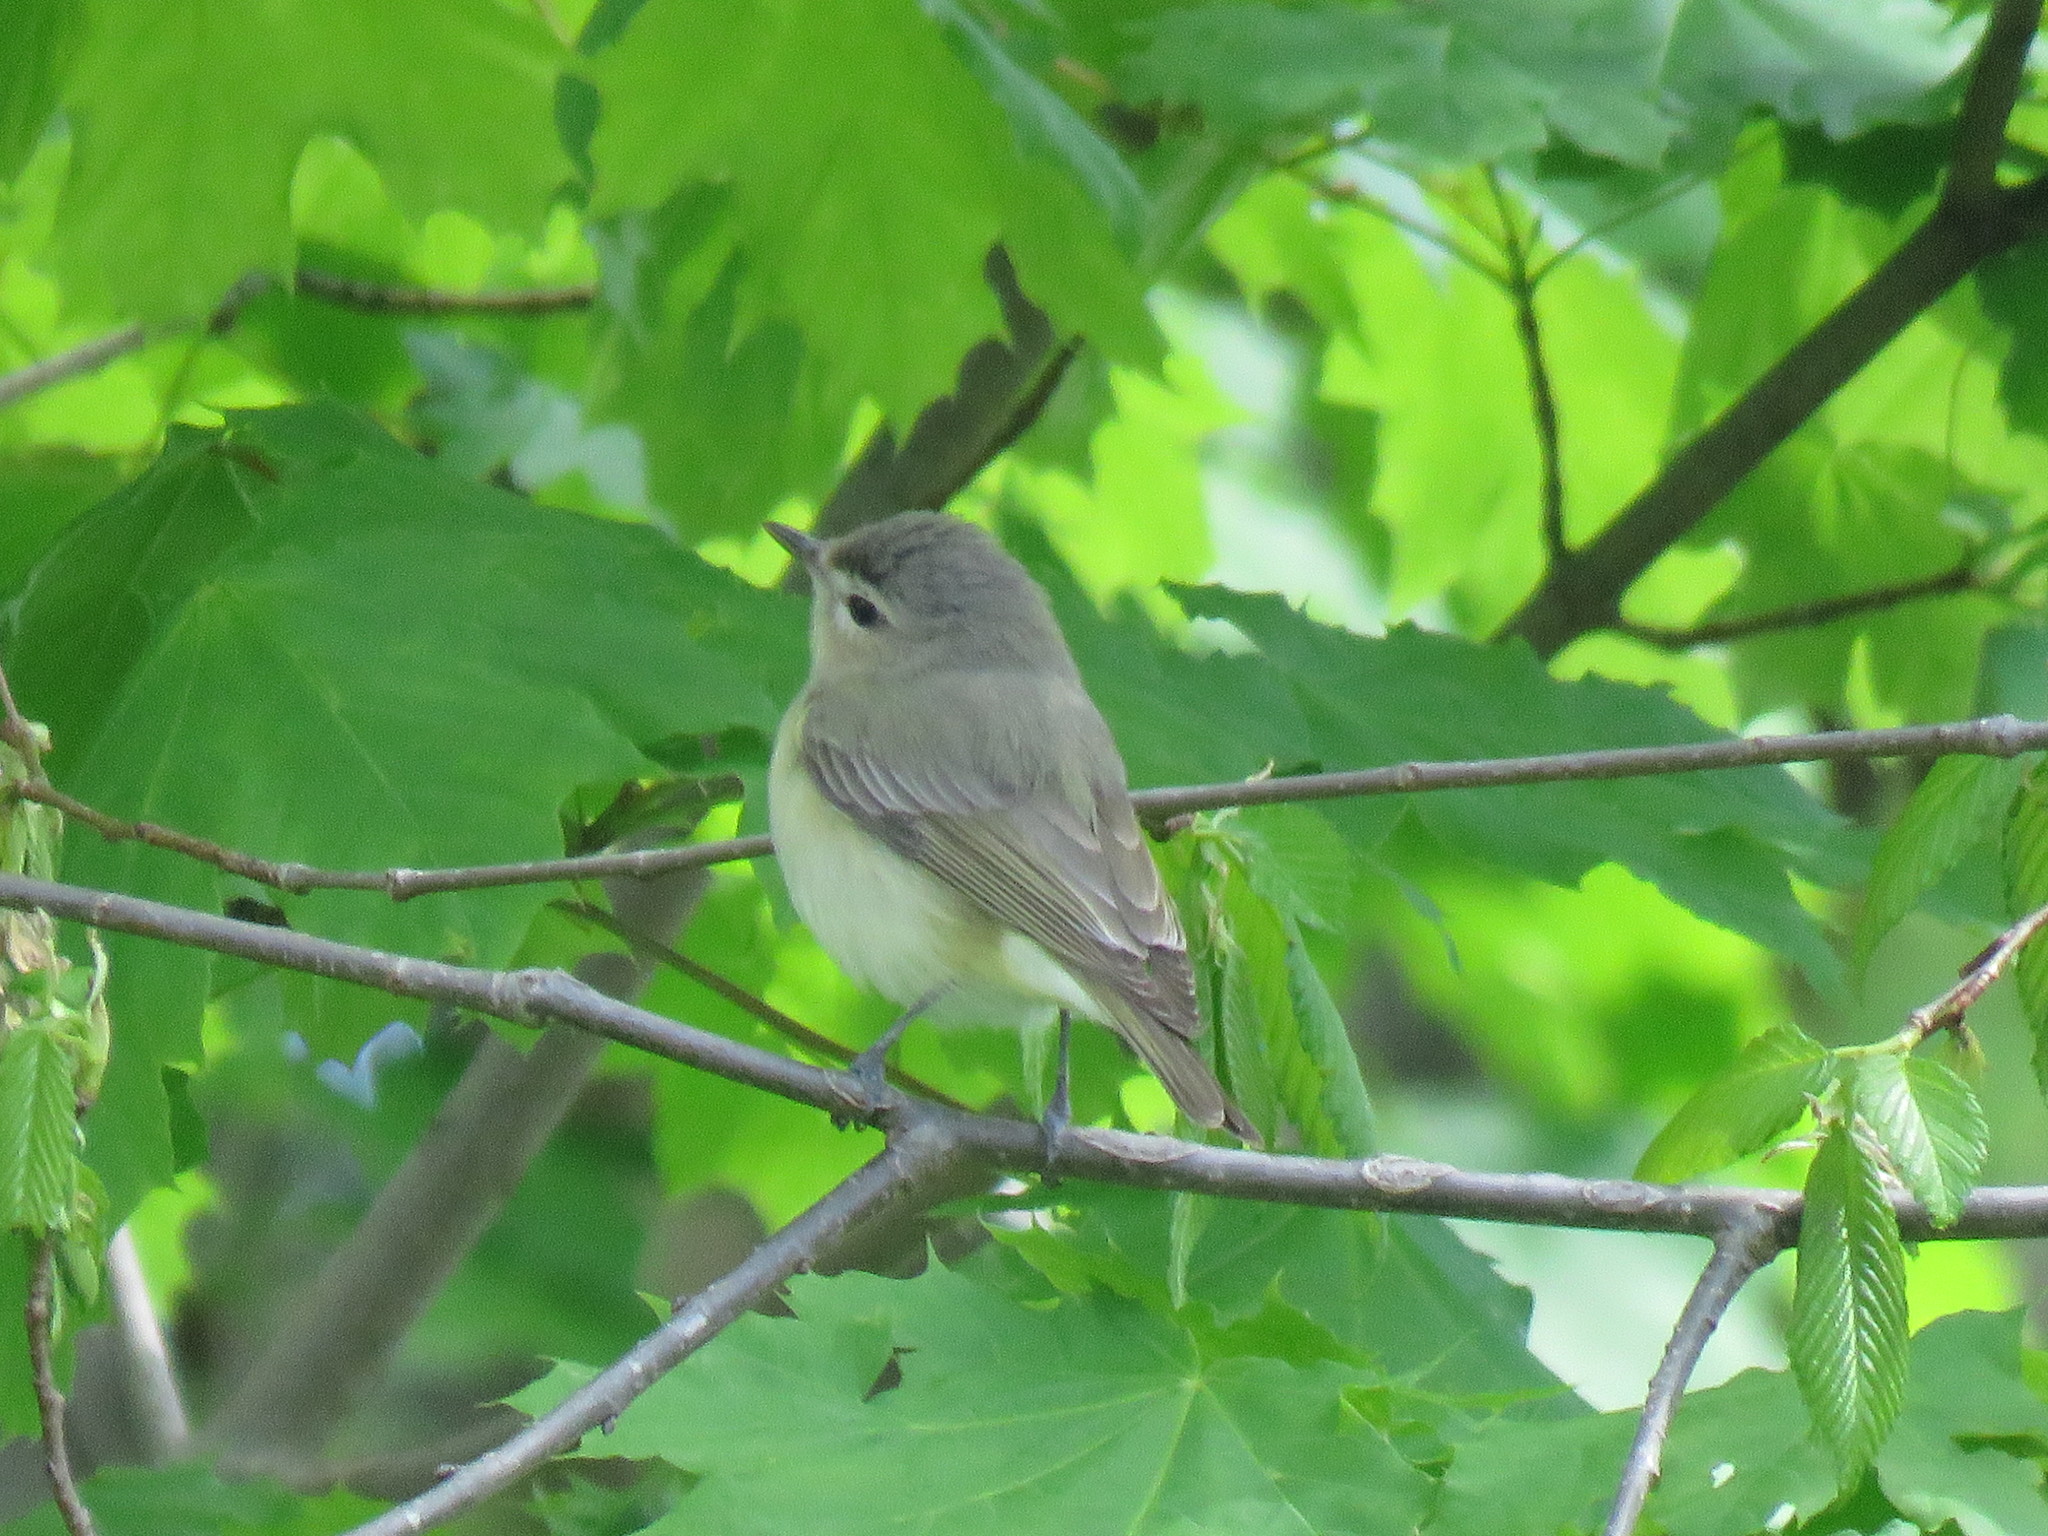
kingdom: Animalia
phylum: Chordata
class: Aves
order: Passeriformes
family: Vireonidae
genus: Vireo
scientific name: Vireo gilvus
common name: Warbling vireo
